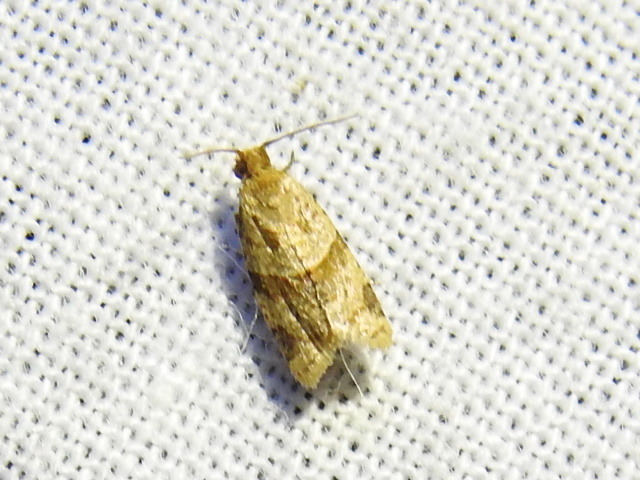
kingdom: Animalia
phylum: Arthropoda
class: Insecta
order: Lepidoptera
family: Tortricidae
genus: Clepsis
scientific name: Clepsis peritana
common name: Garden tortrix
